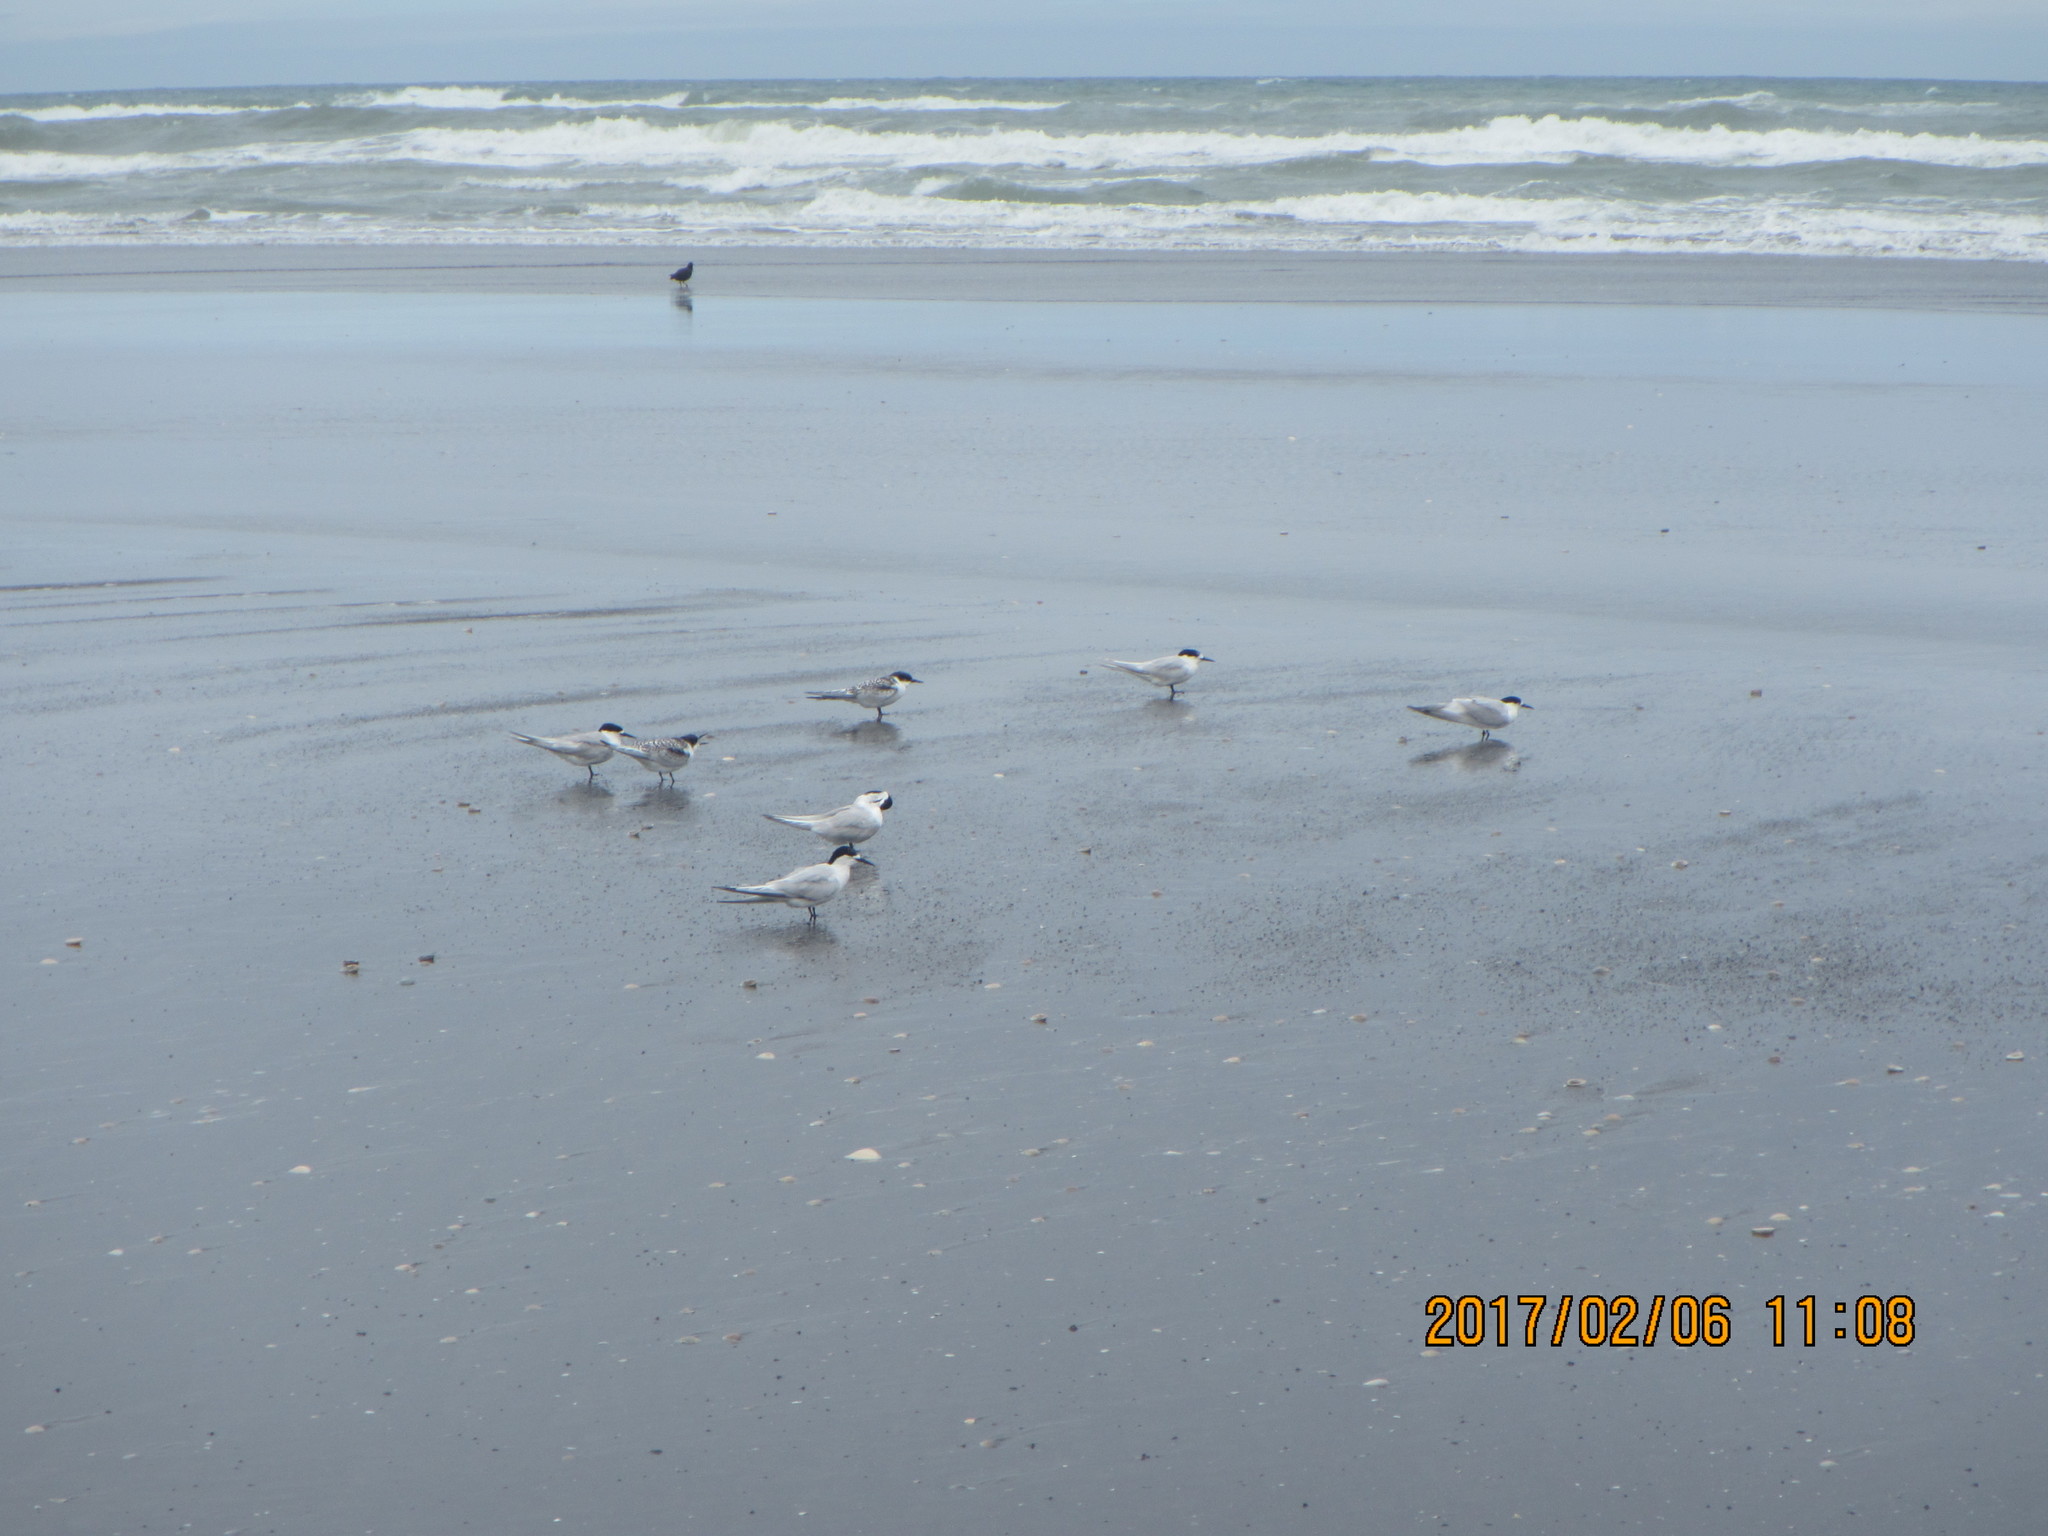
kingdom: Animalia
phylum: Chordata
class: Aves
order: Charadriiformes
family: Laridae
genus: Sterna
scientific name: Sterna striata
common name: White-fronted tern
